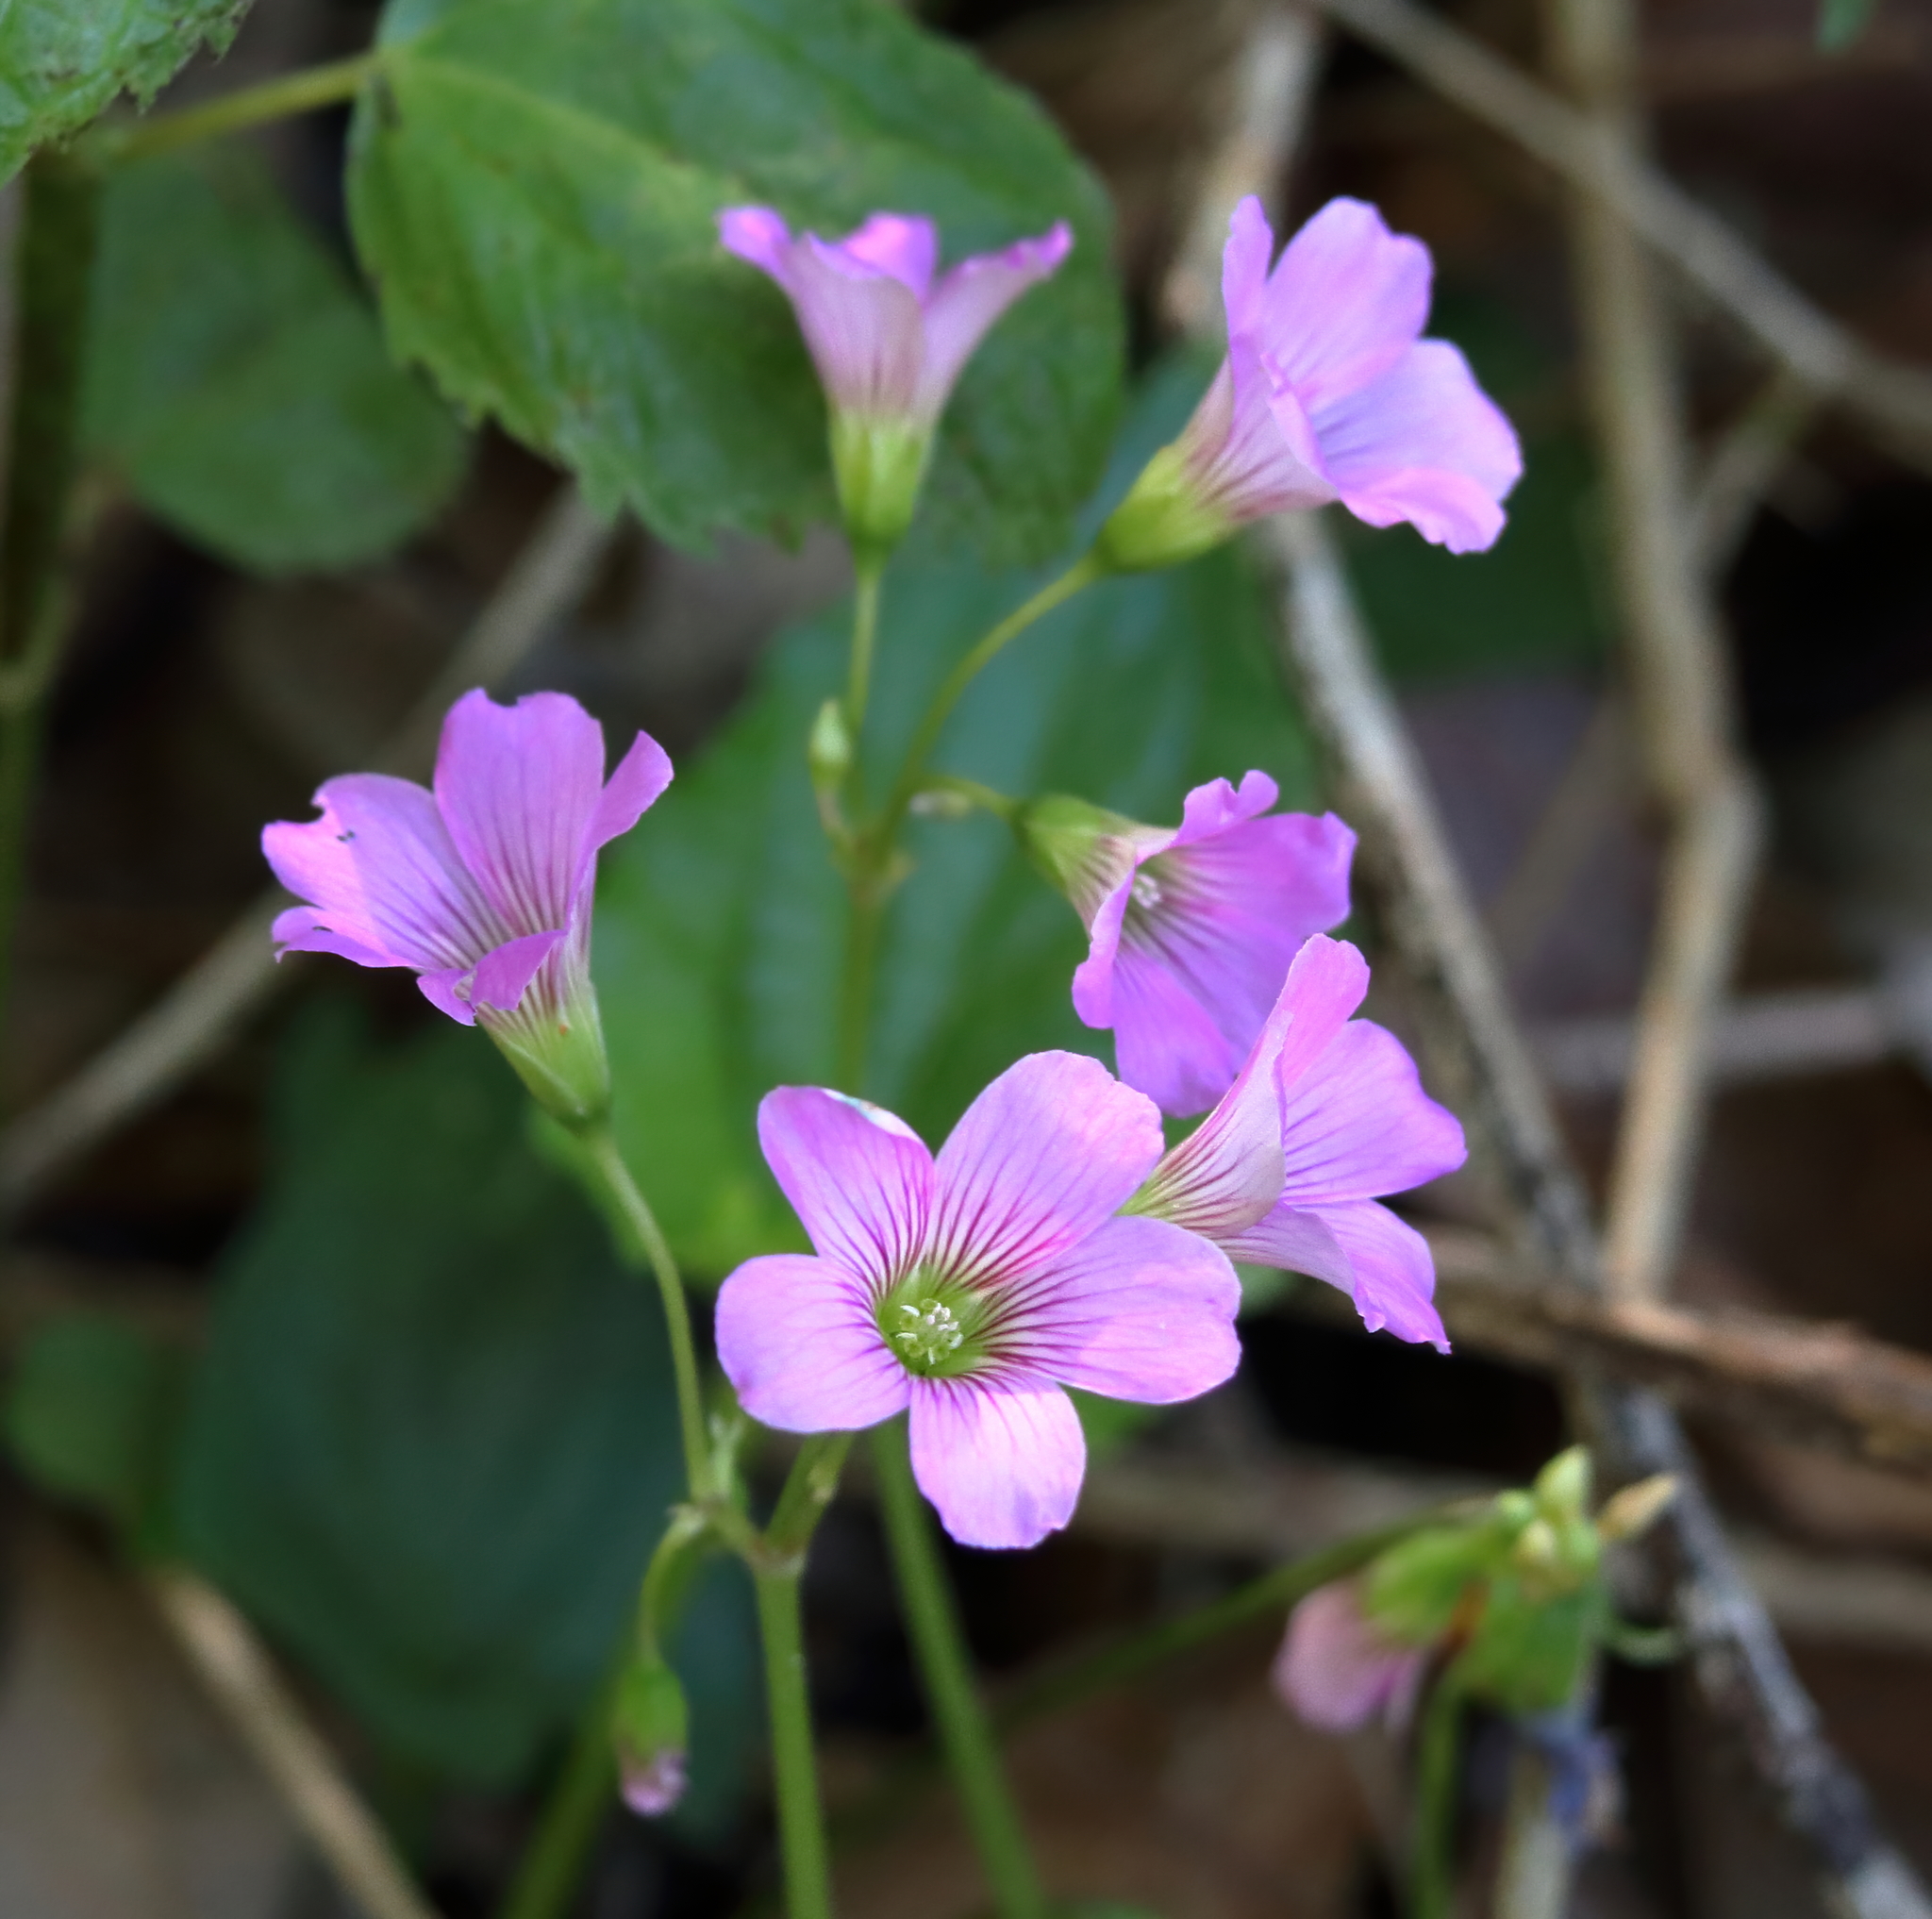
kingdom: Plantae
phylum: Tracheophyta
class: Magnoliopsida
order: Oxalidales
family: Oxalidaceae
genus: Oxalis
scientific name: Oxalis debilis
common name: Large-flowered pink-sorrel
